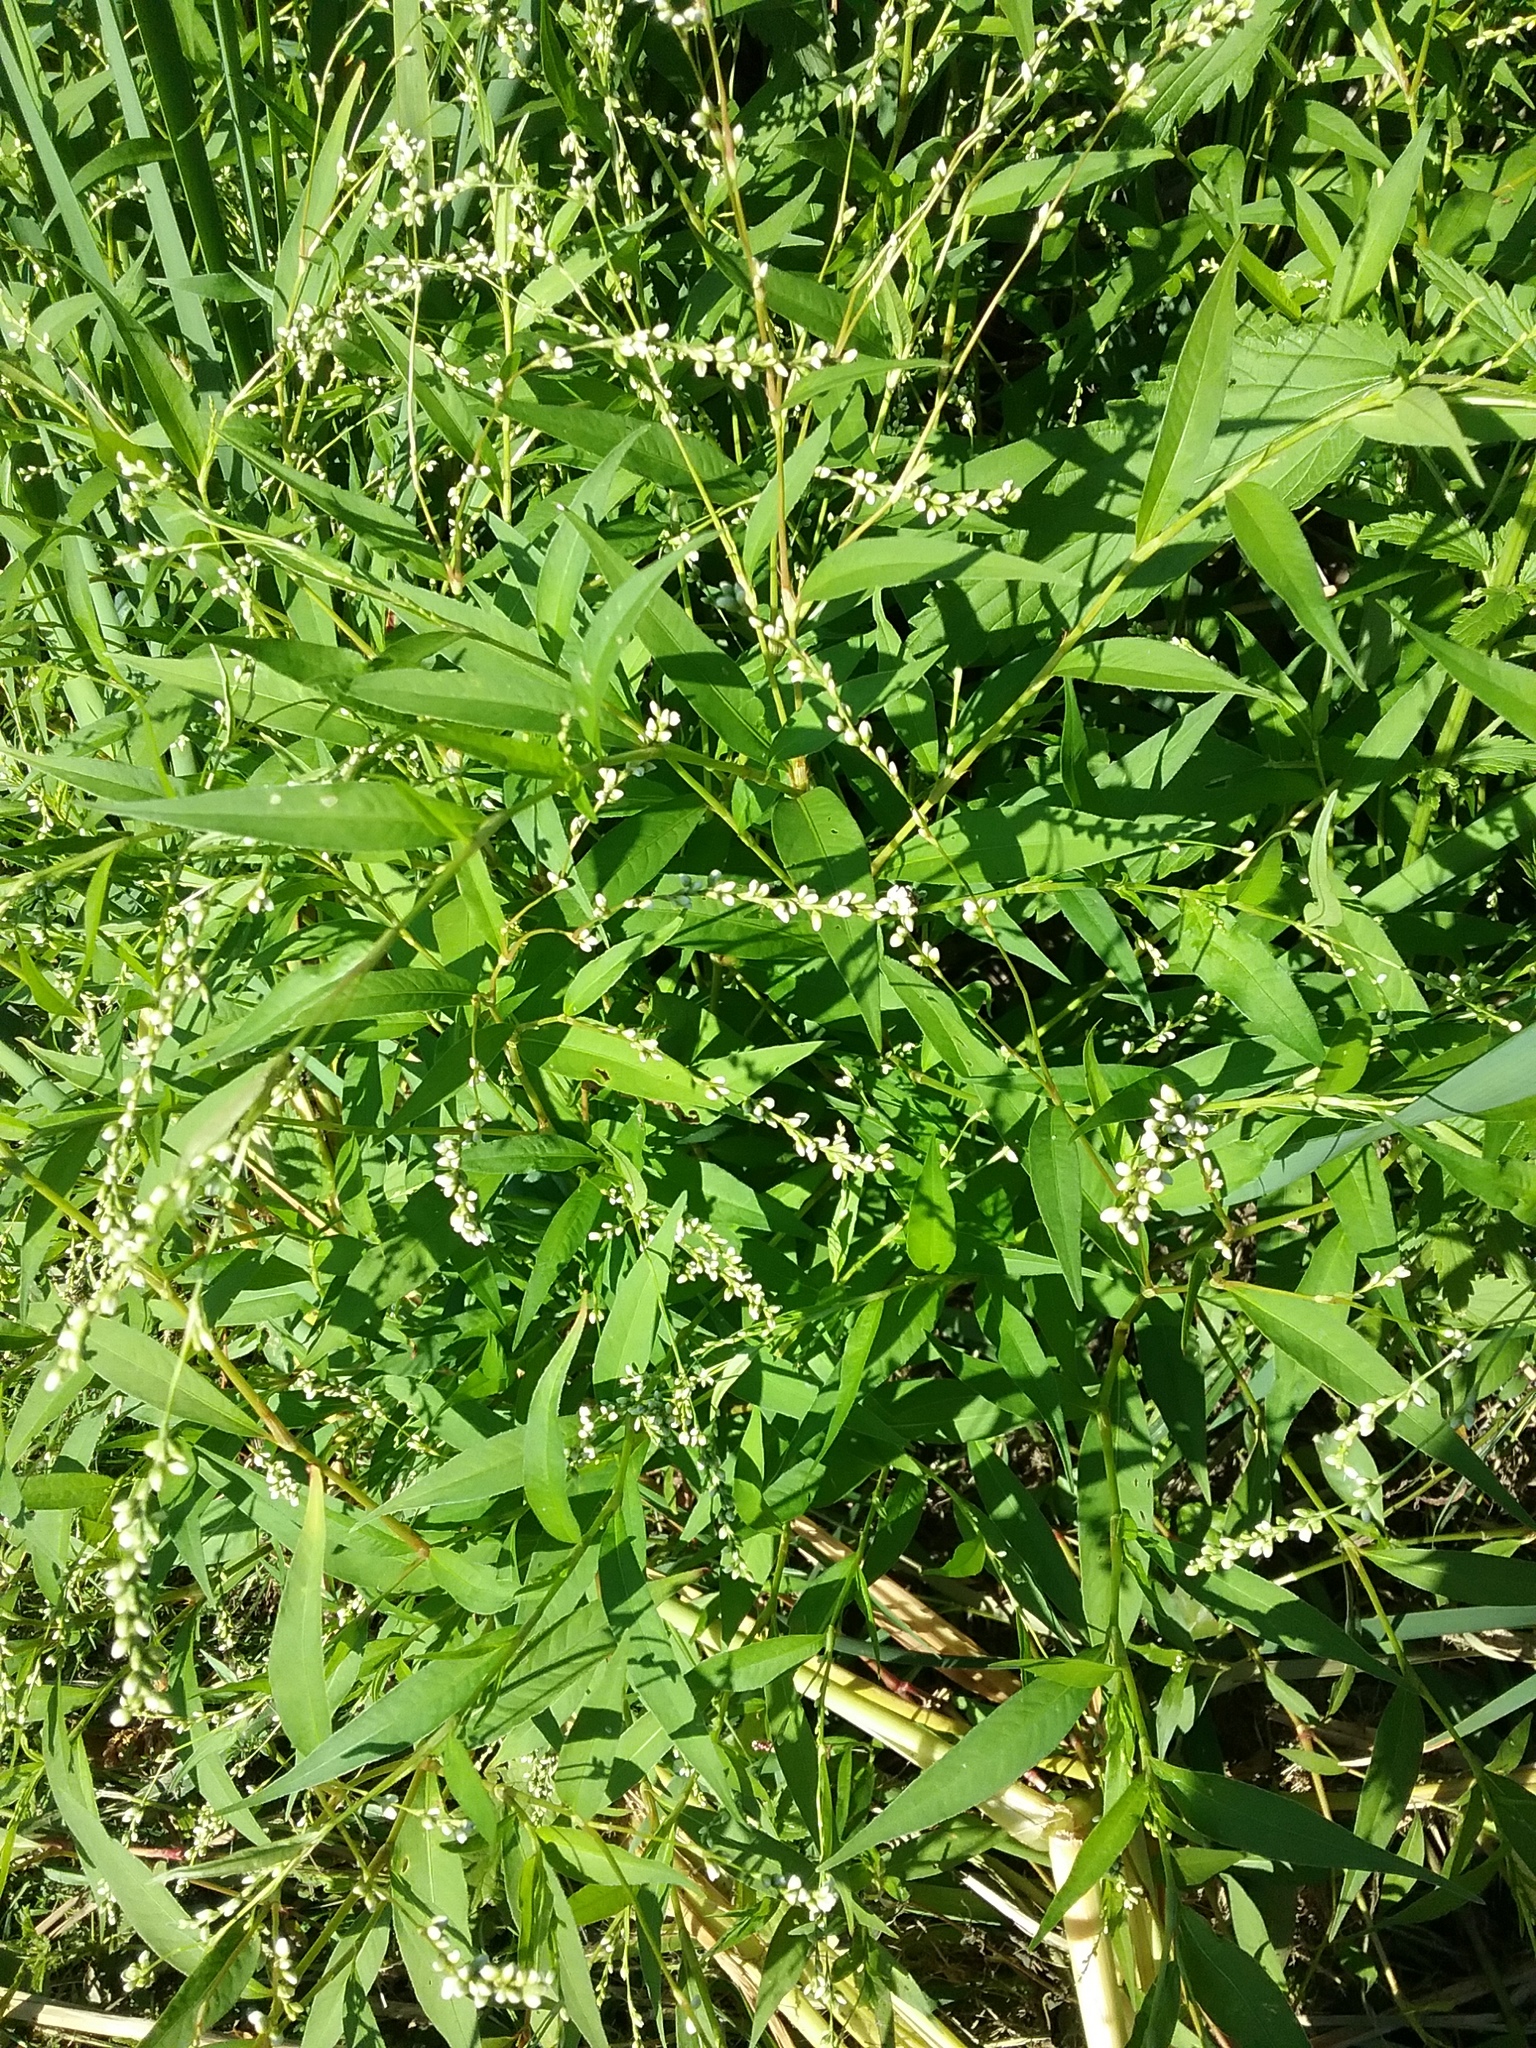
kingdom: Plantae
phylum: Tracheophyta
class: Magnoliopsida
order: Caryophyllales
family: Polygonaceae
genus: Persicaria
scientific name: Persicaria punctata
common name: Dotted smartweed
